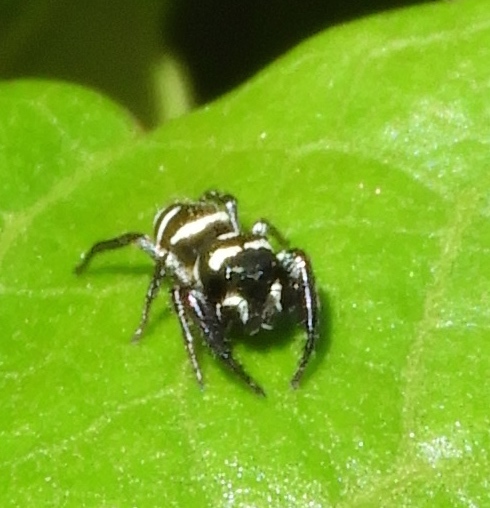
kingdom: Animalia
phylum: Arthropoda
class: Arachnida
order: Araneae
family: Salticidae
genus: Sassacus
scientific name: Sassacus
